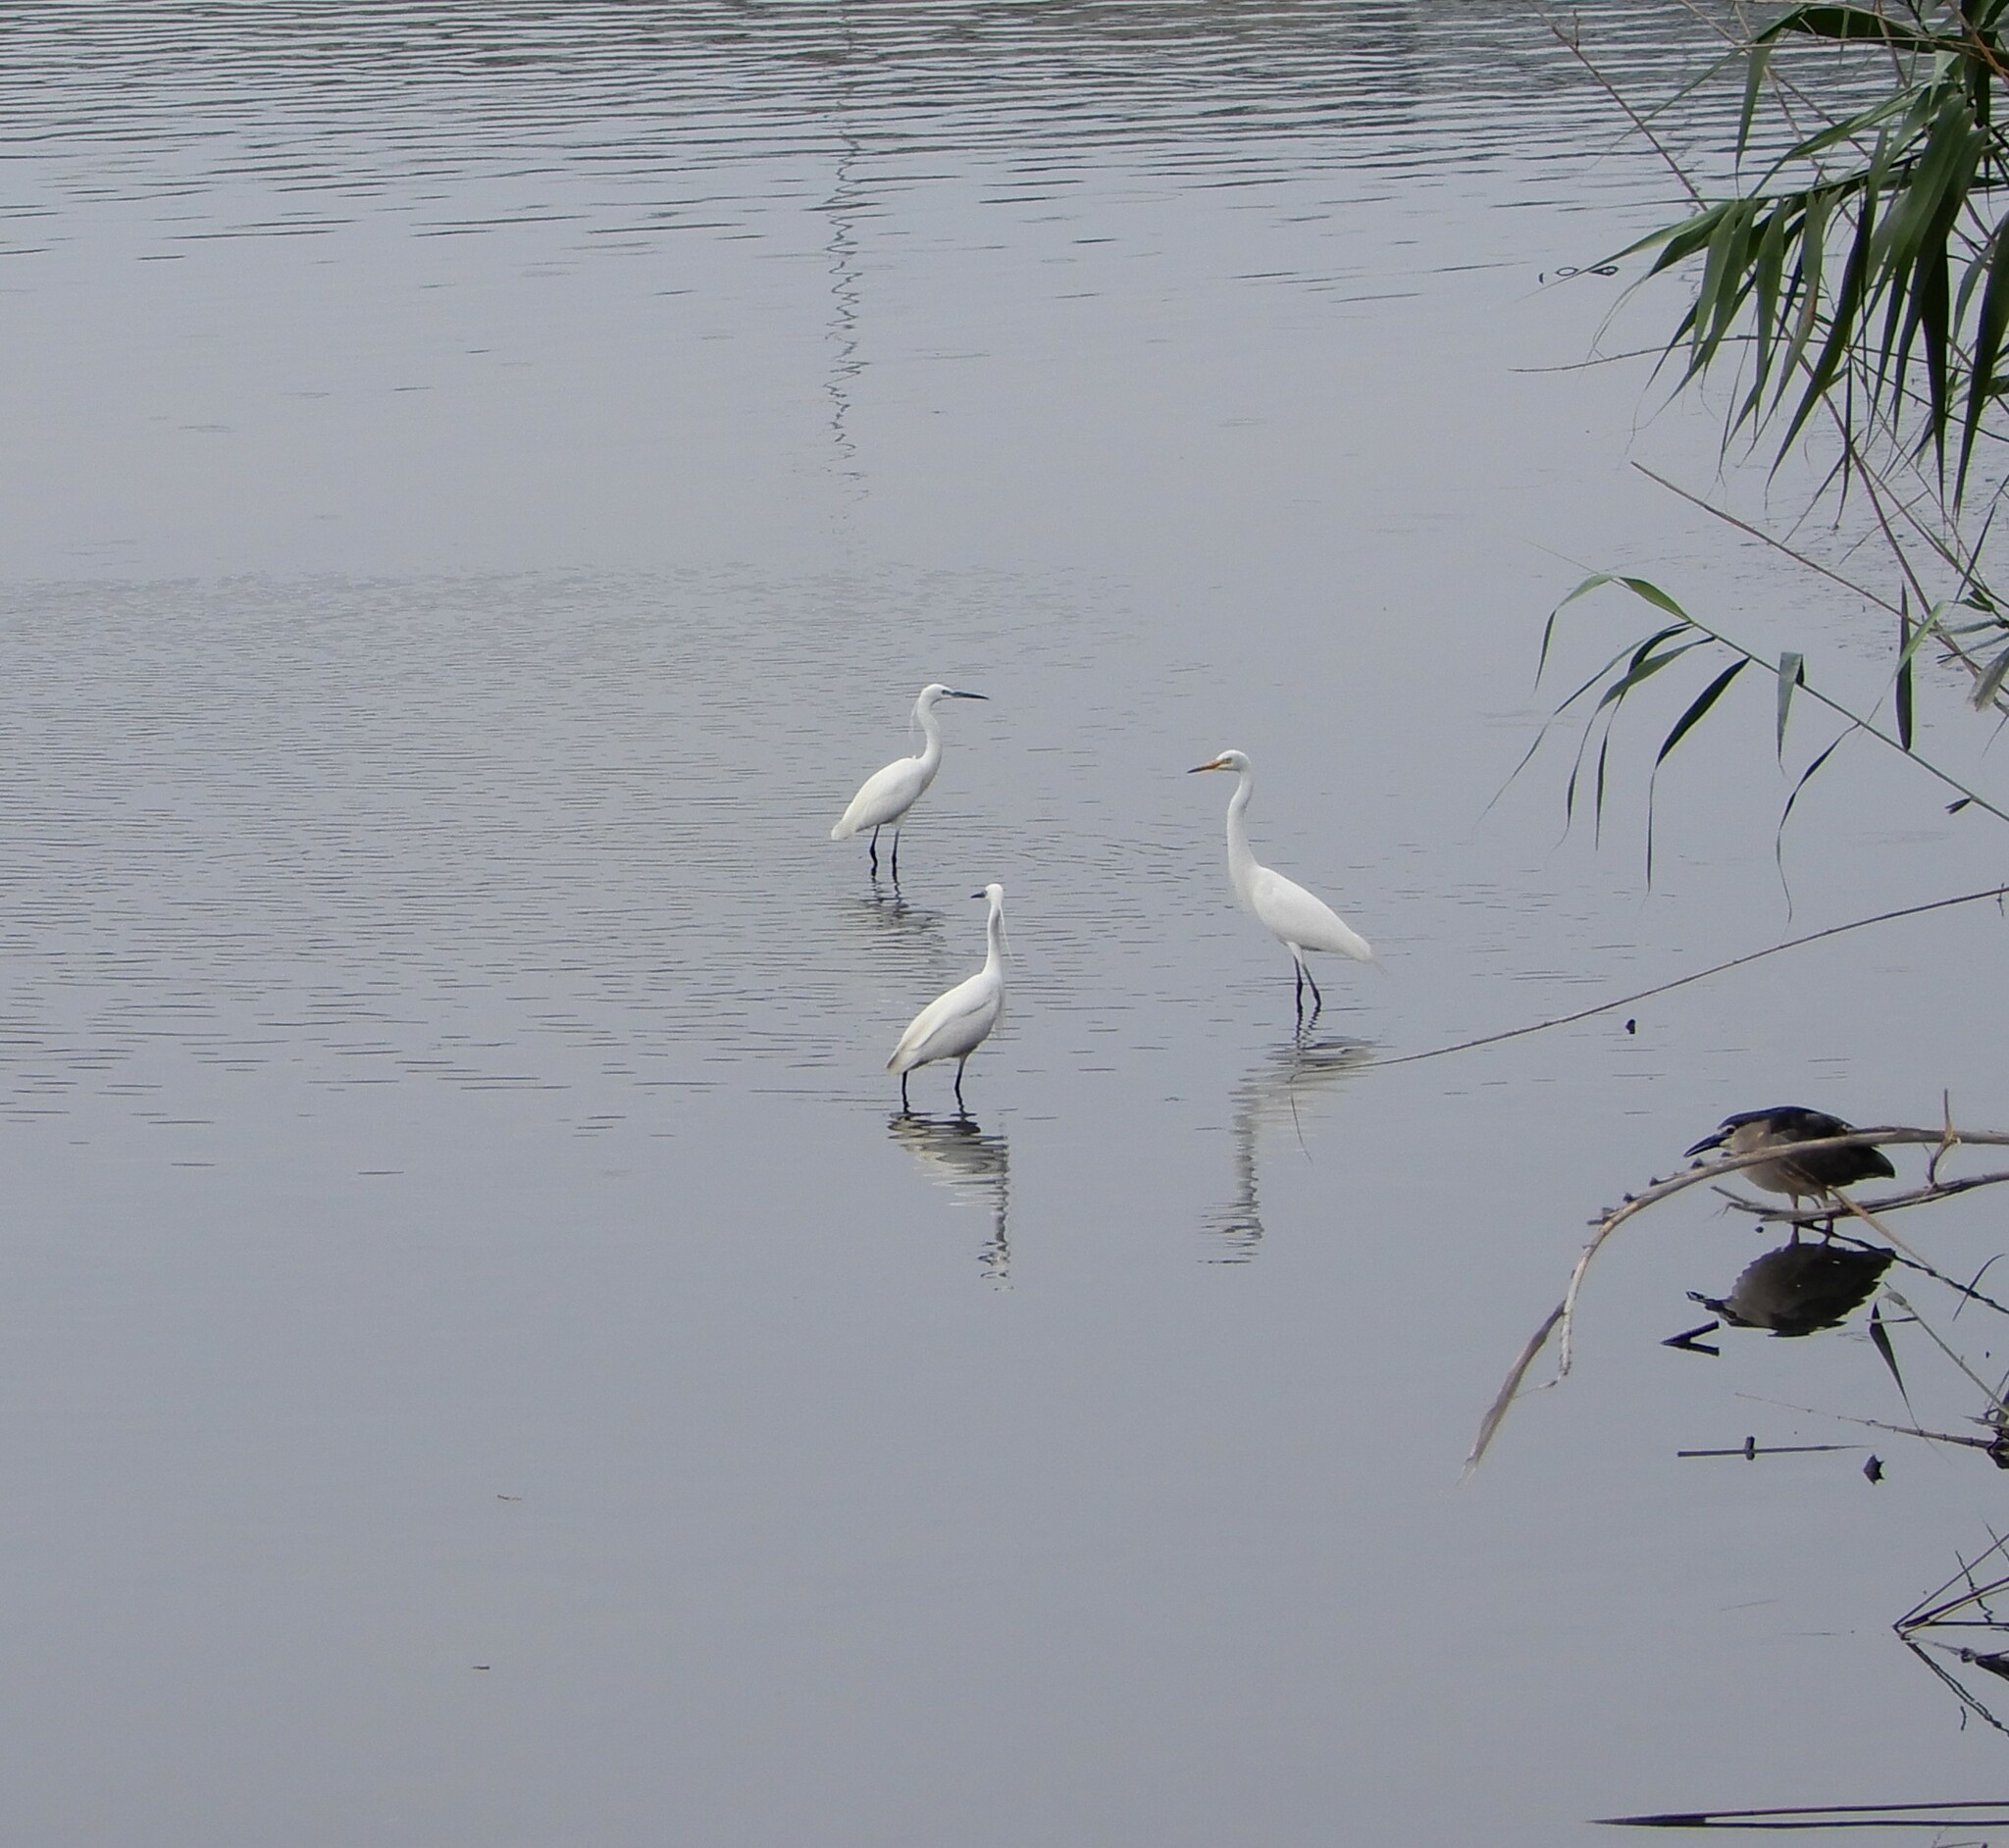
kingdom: Animalia
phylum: Chordata
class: Aves
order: Pelecaniformes
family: Ardeidae
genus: Egretta
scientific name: Egretta intermedia
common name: Intermediate egret
